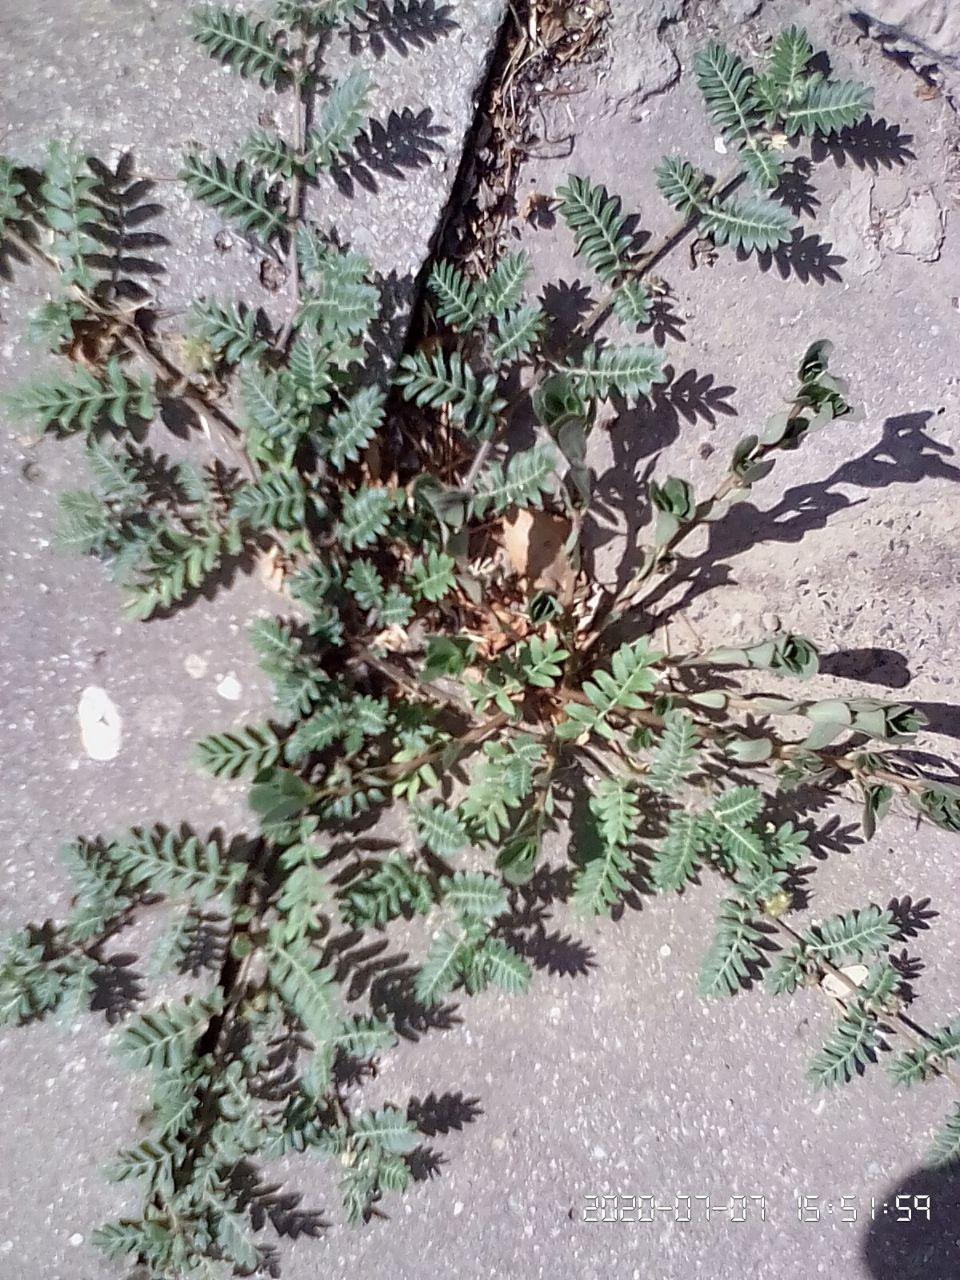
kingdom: Plantae
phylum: Tracheophyta
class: Magnoliopsida
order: Zygophyllales
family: Zygophyllaceae
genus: Tribulus
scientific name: Tribulus terrestris
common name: Puncturevine
